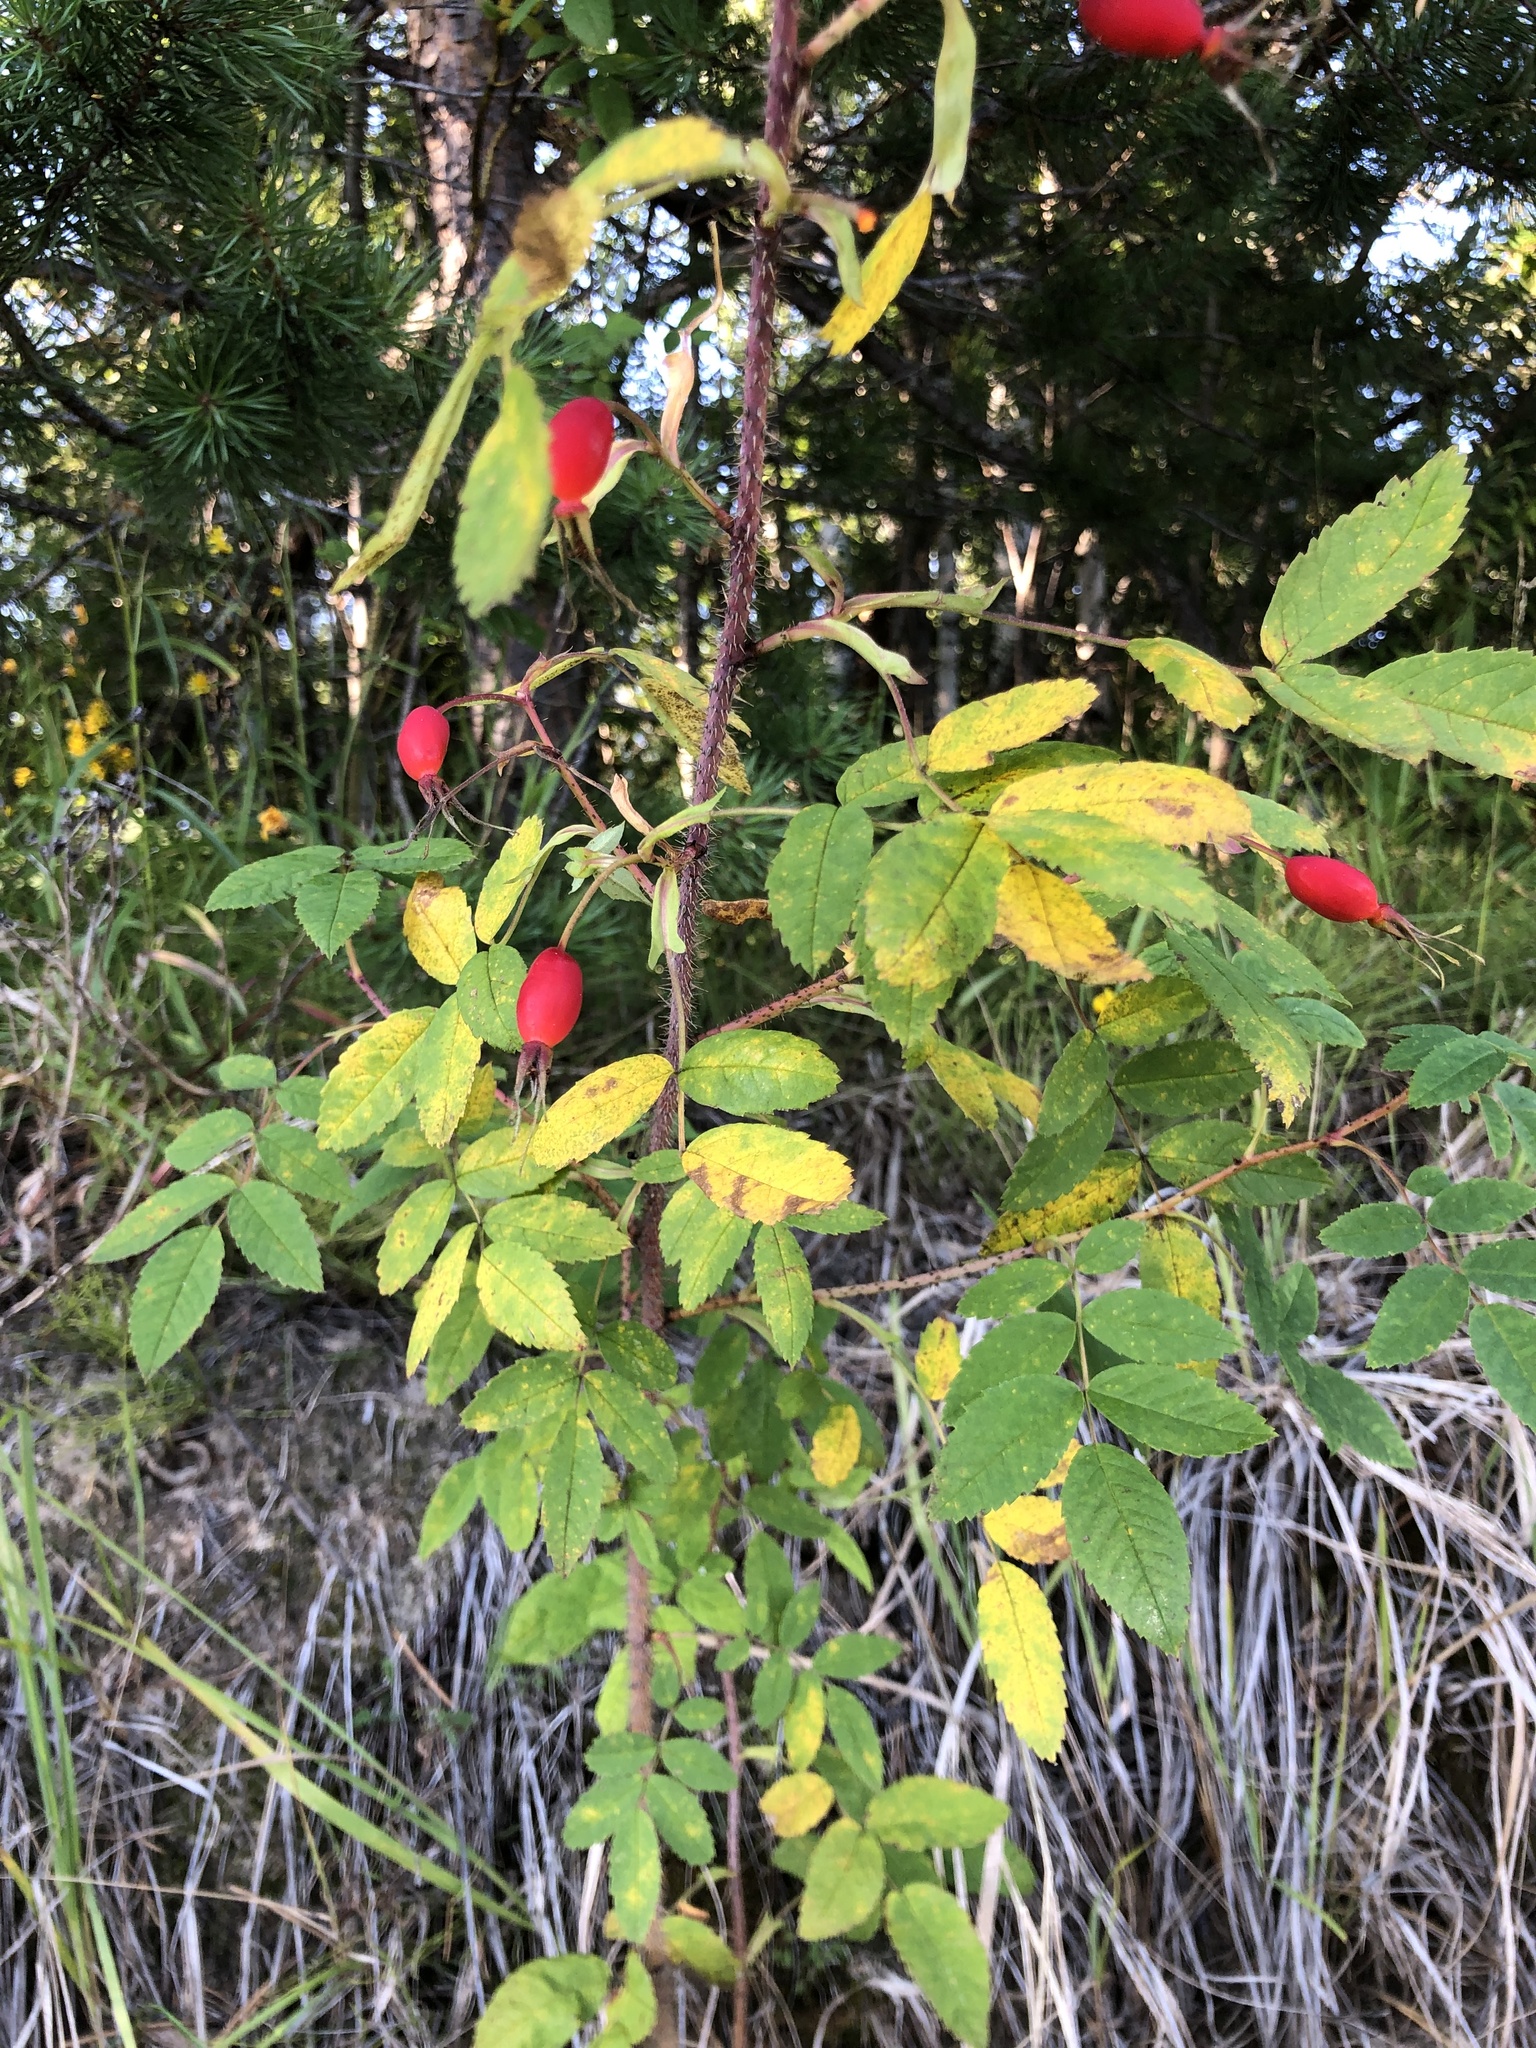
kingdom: Plantae
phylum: Tracheophyta
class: Magnoliopsida
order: Rosales
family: Rosaceae
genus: Rosa
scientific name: Rosa acicularis
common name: Prickly rose
